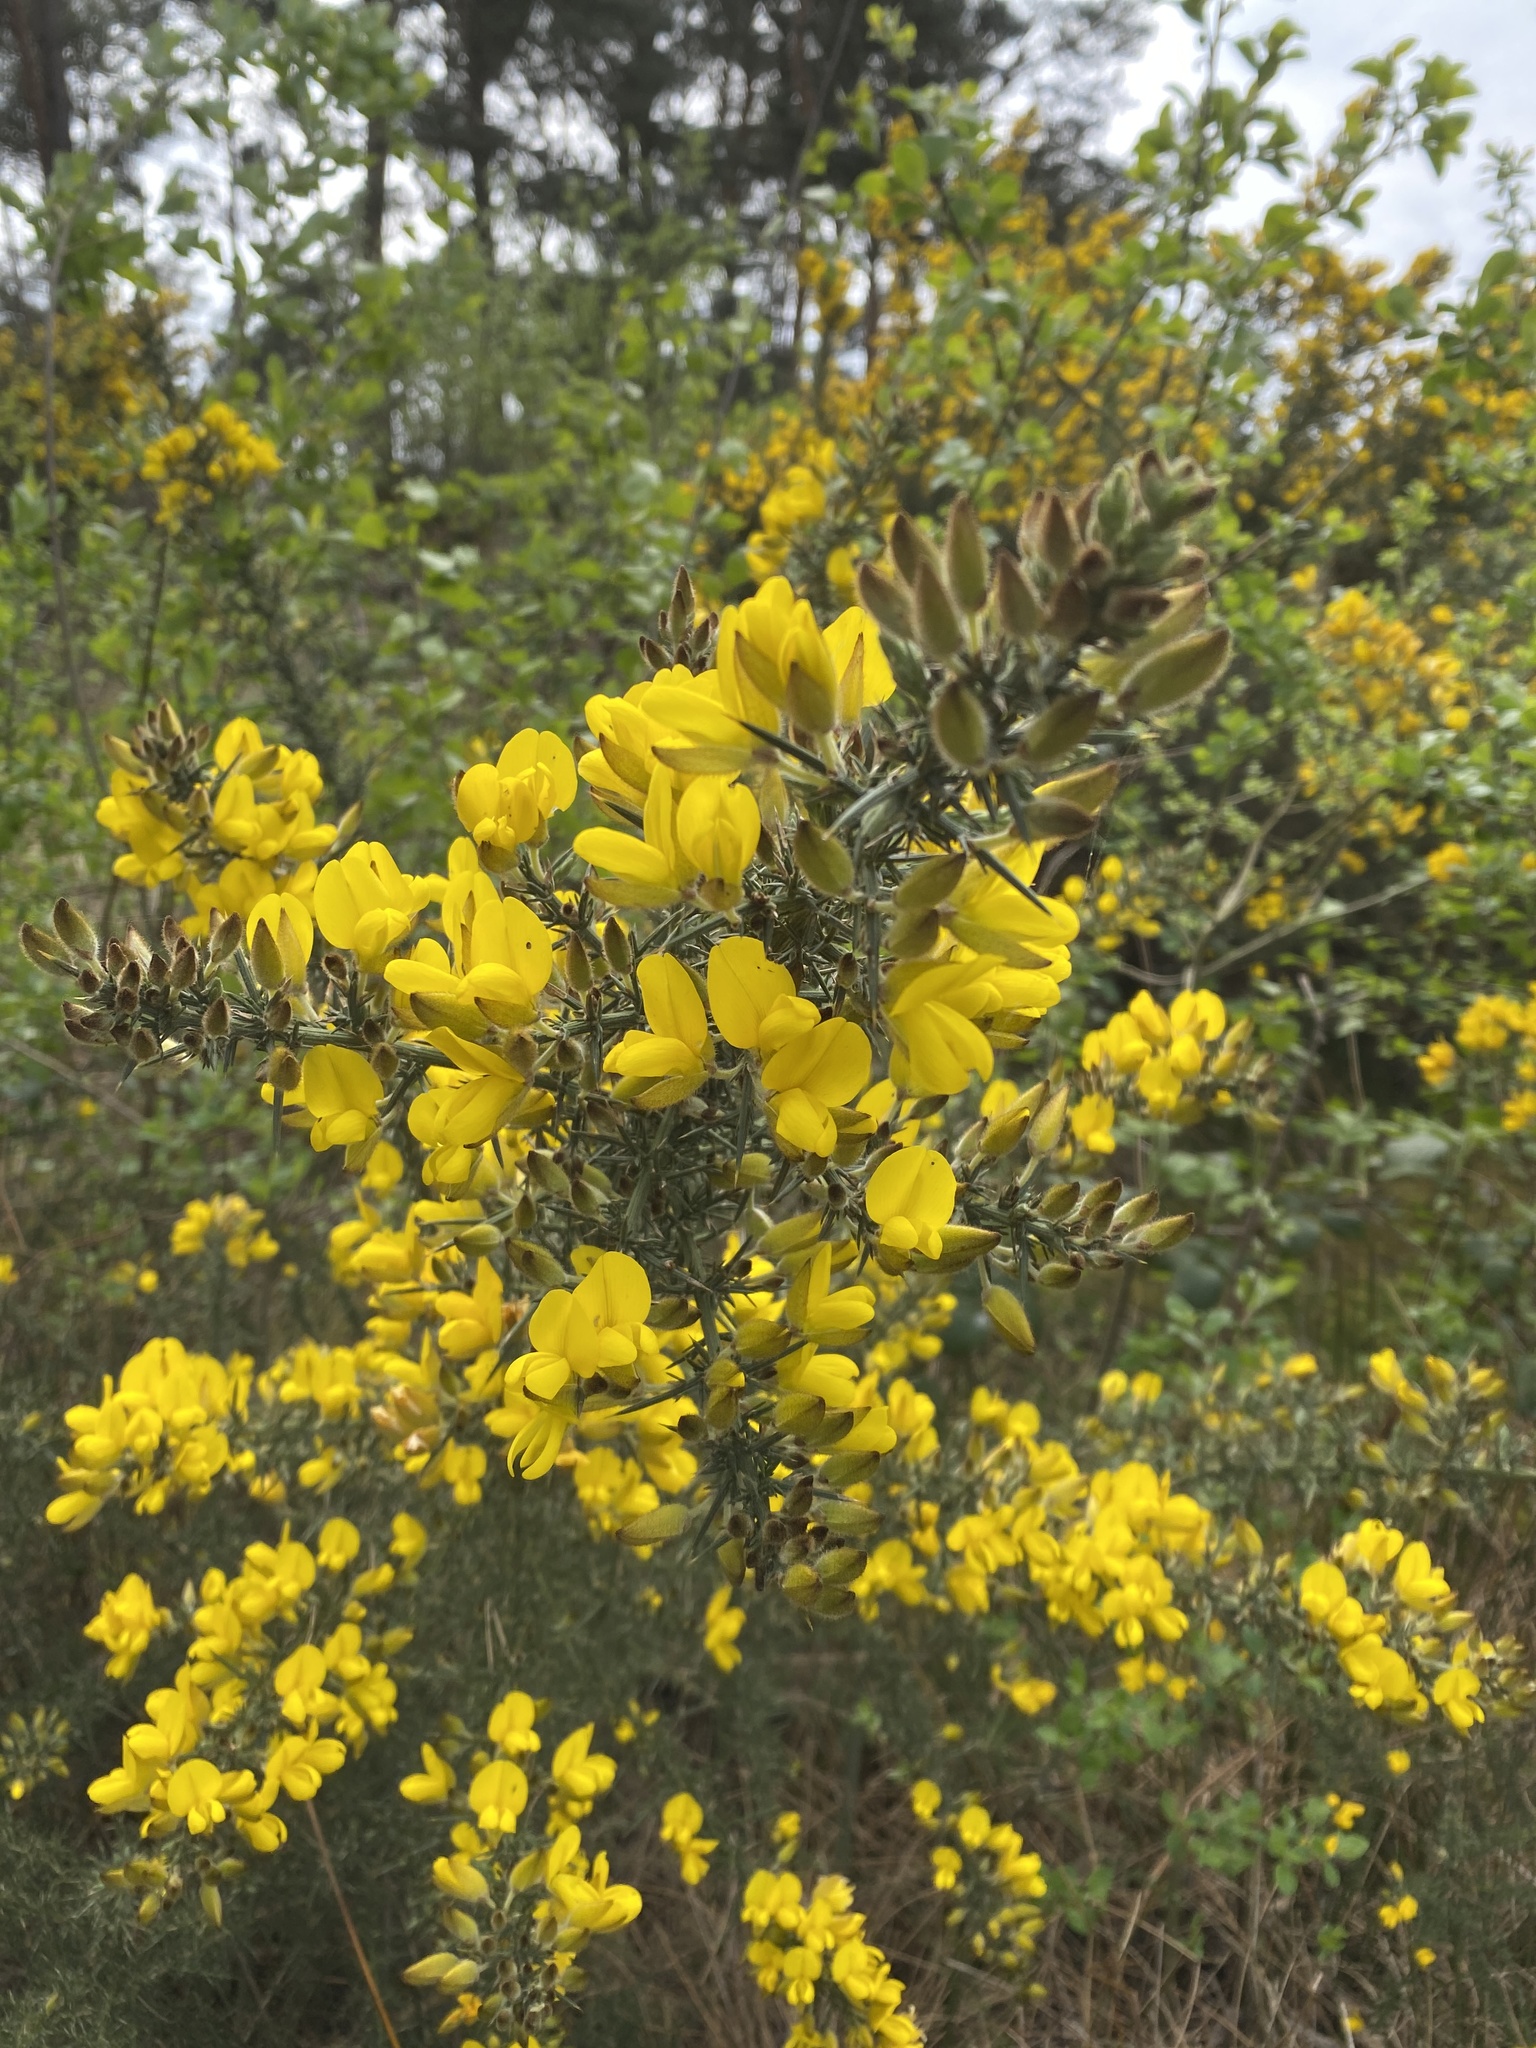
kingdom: Plantae
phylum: Tracheophyta
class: Magnoliopsida
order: Fabales
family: Fabaceae
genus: Ulex
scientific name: Ulex europaeus
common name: Common gorse
